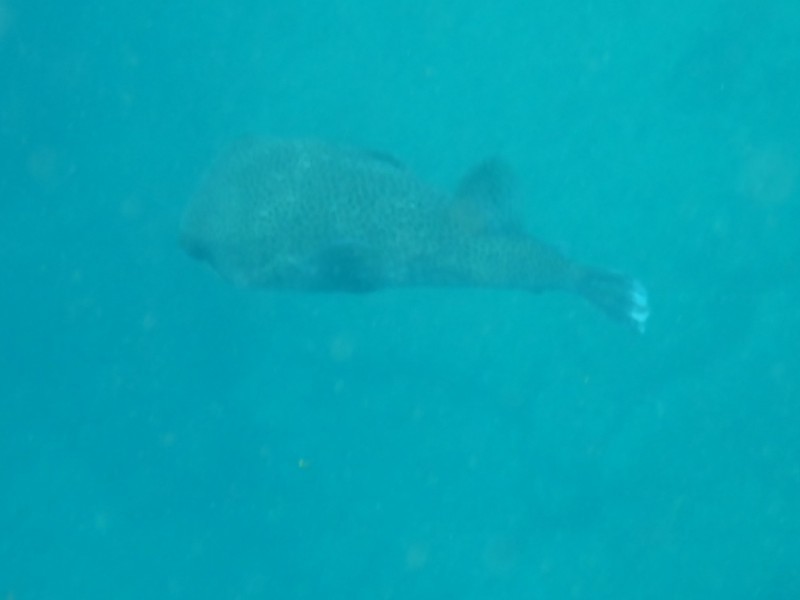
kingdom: Animalia
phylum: Chordata
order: Tetraodontiformes
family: Diodontidae
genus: Diodon
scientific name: Diodon hystrix
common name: Giant porcupinefish
